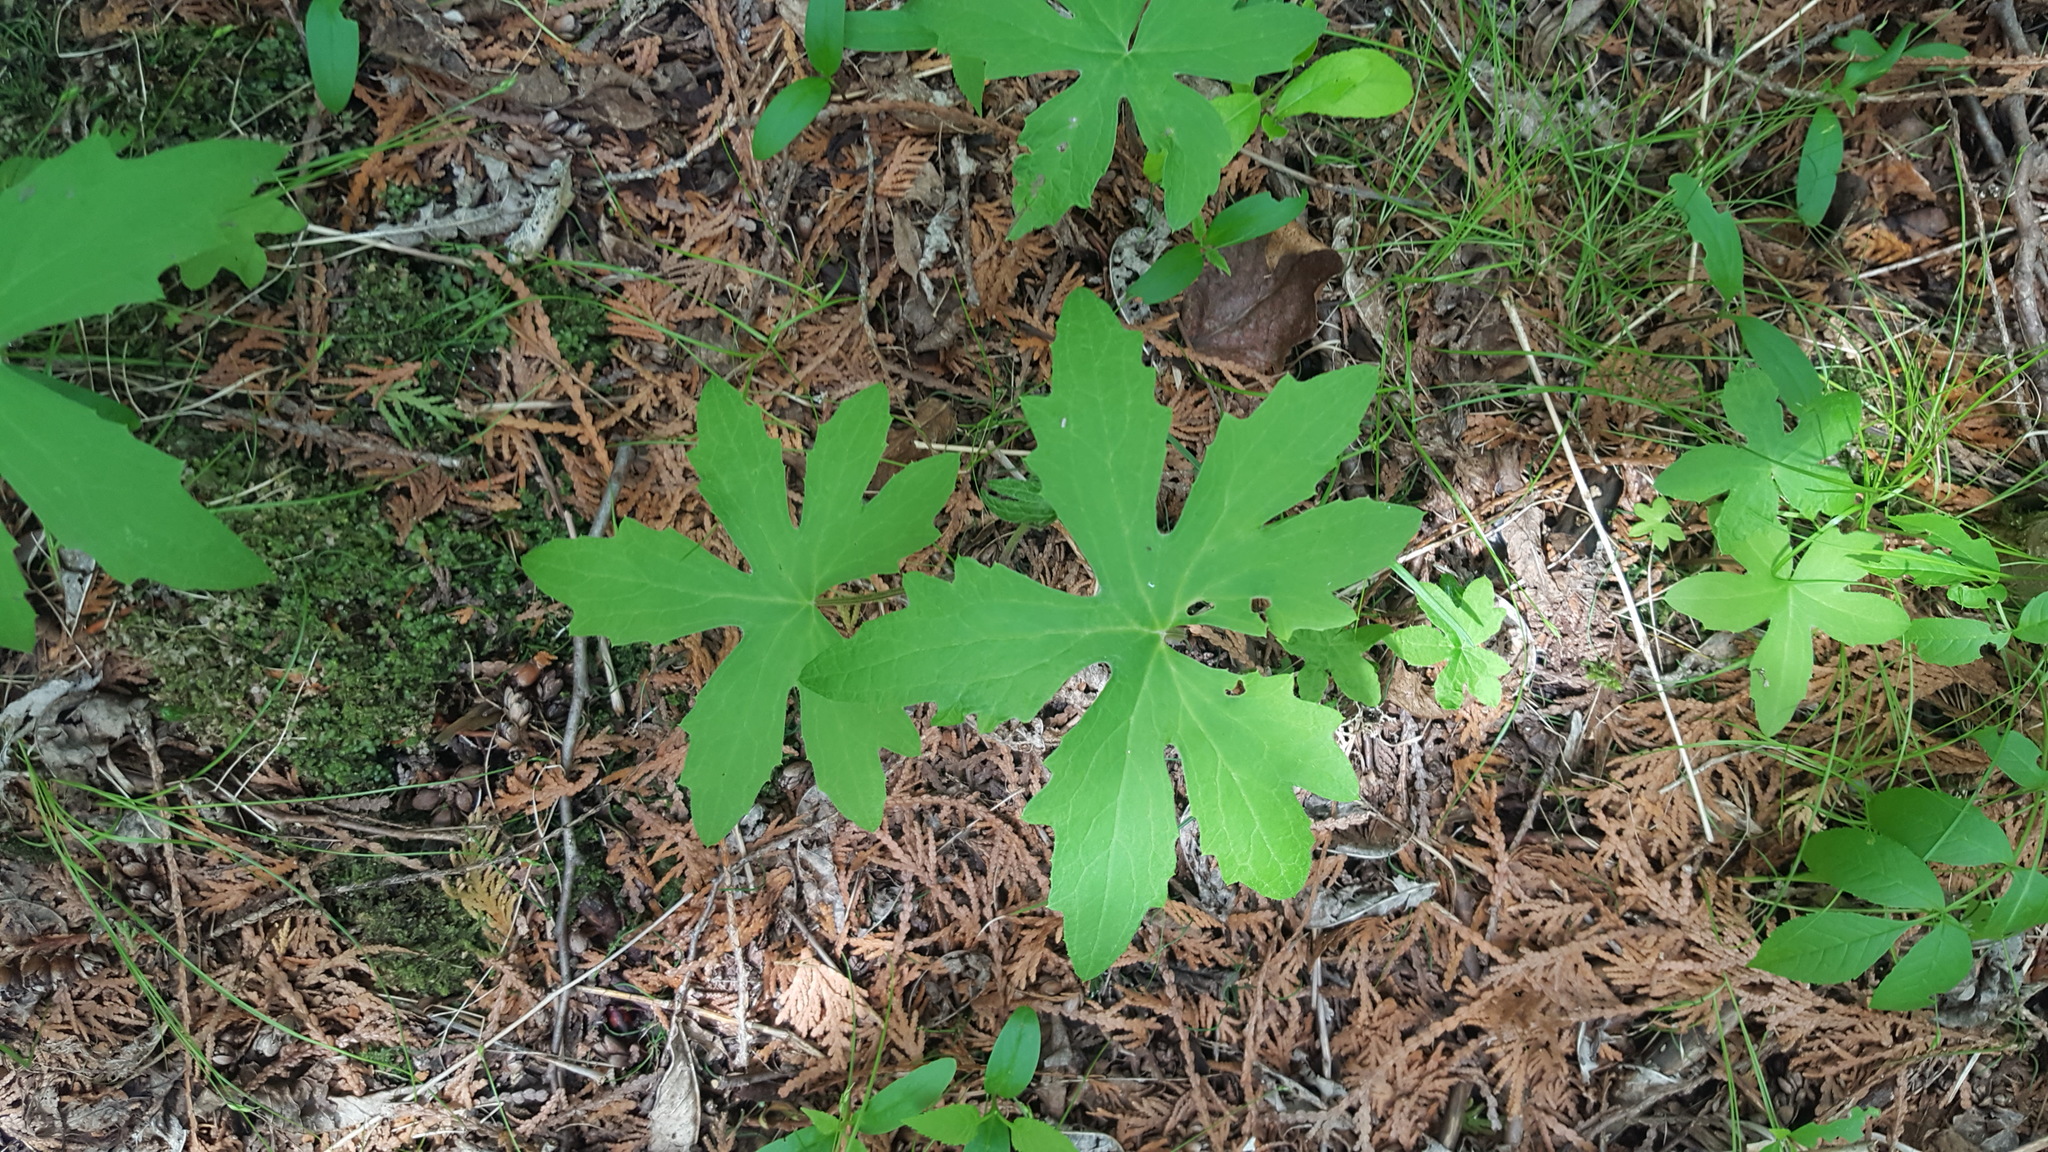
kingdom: Plantae
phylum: Tracheophyta
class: Magnoliopsida
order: Asterales
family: Asteraceae
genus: Petasites
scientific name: Petasites frigidus
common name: Arctic butterbur
